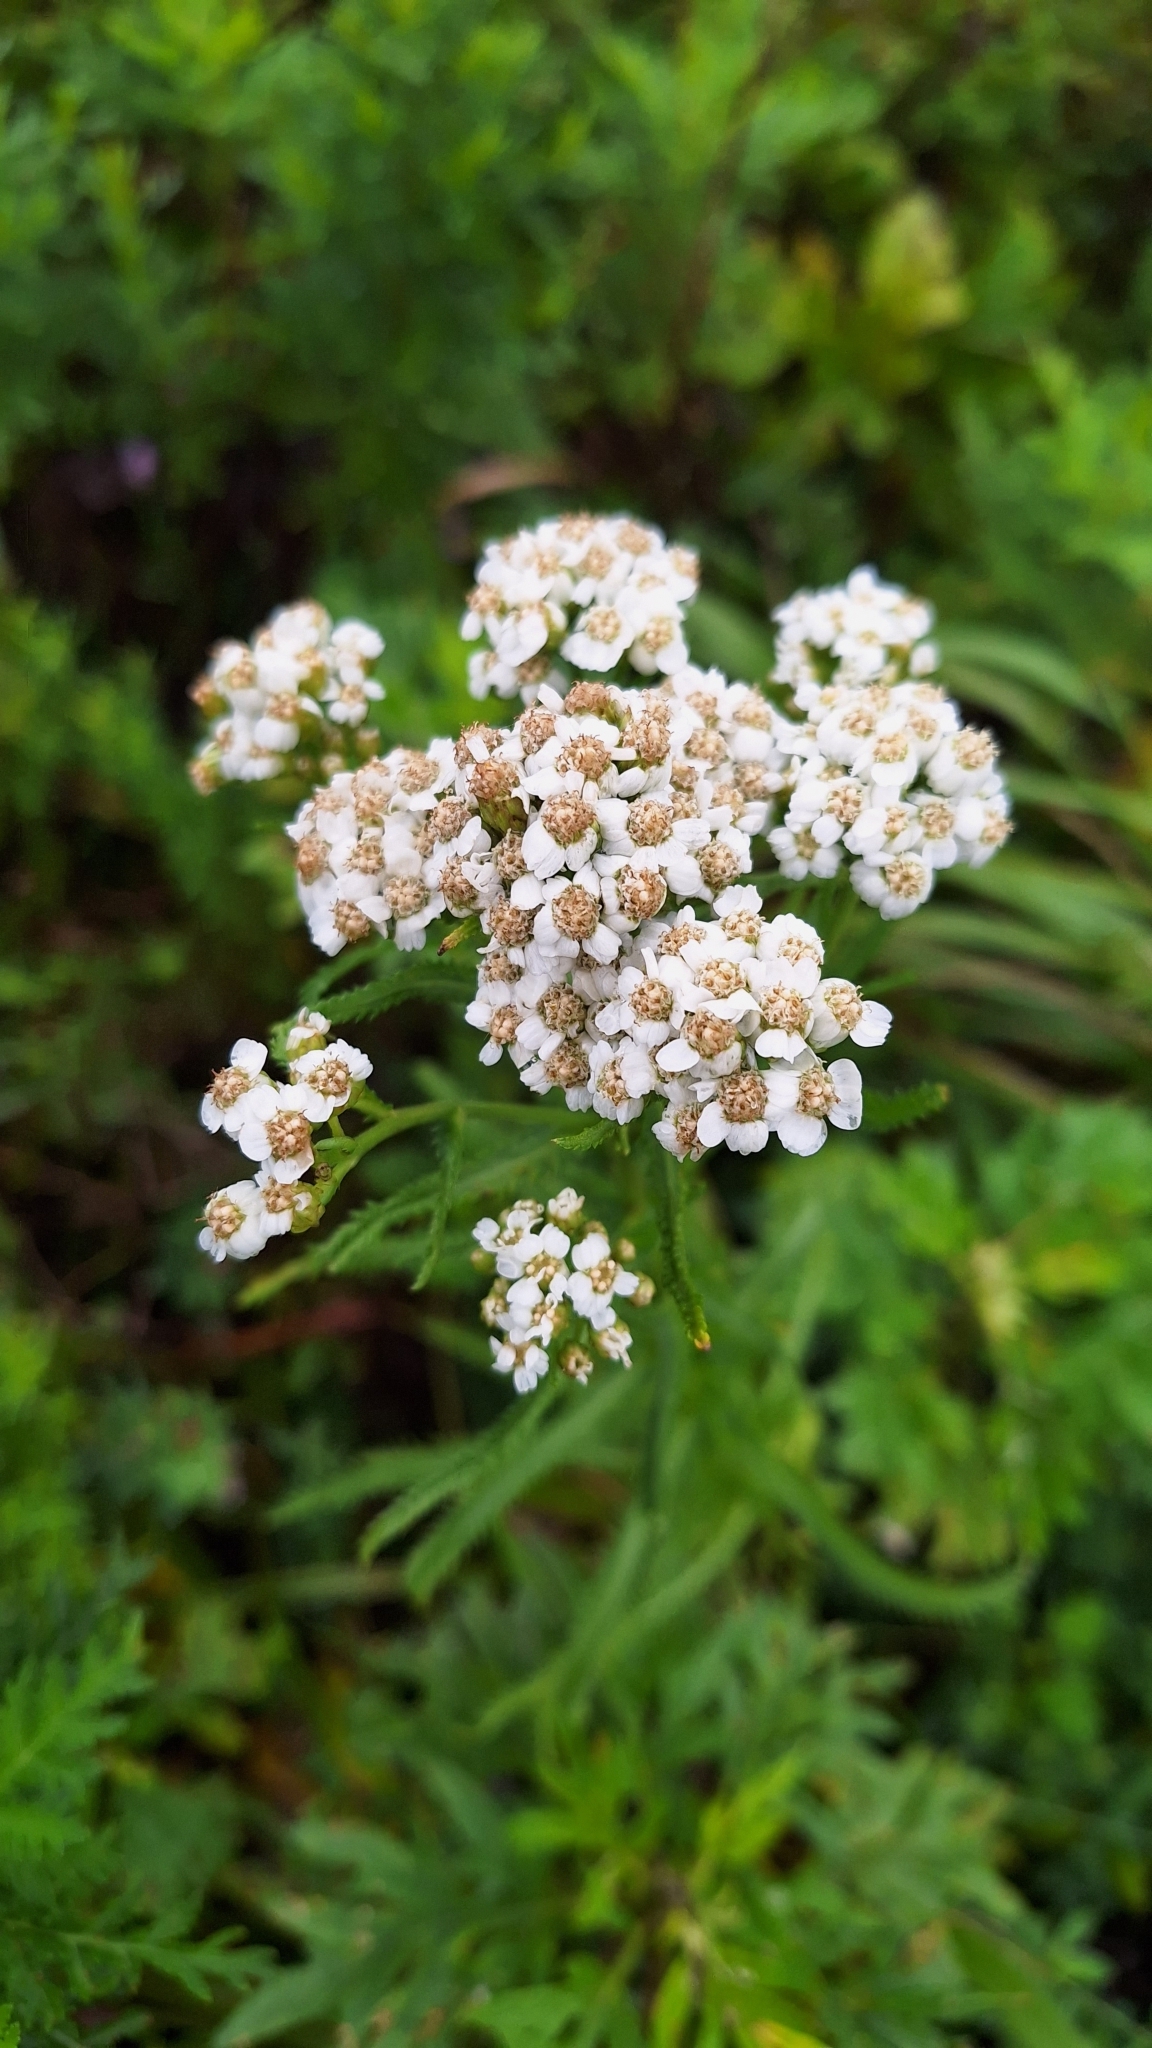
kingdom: Plantae
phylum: Tracheophyta
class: Magnoliopsida
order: Asterales
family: Asteraceae
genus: Achillea
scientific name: Achillea ptarmicoides
